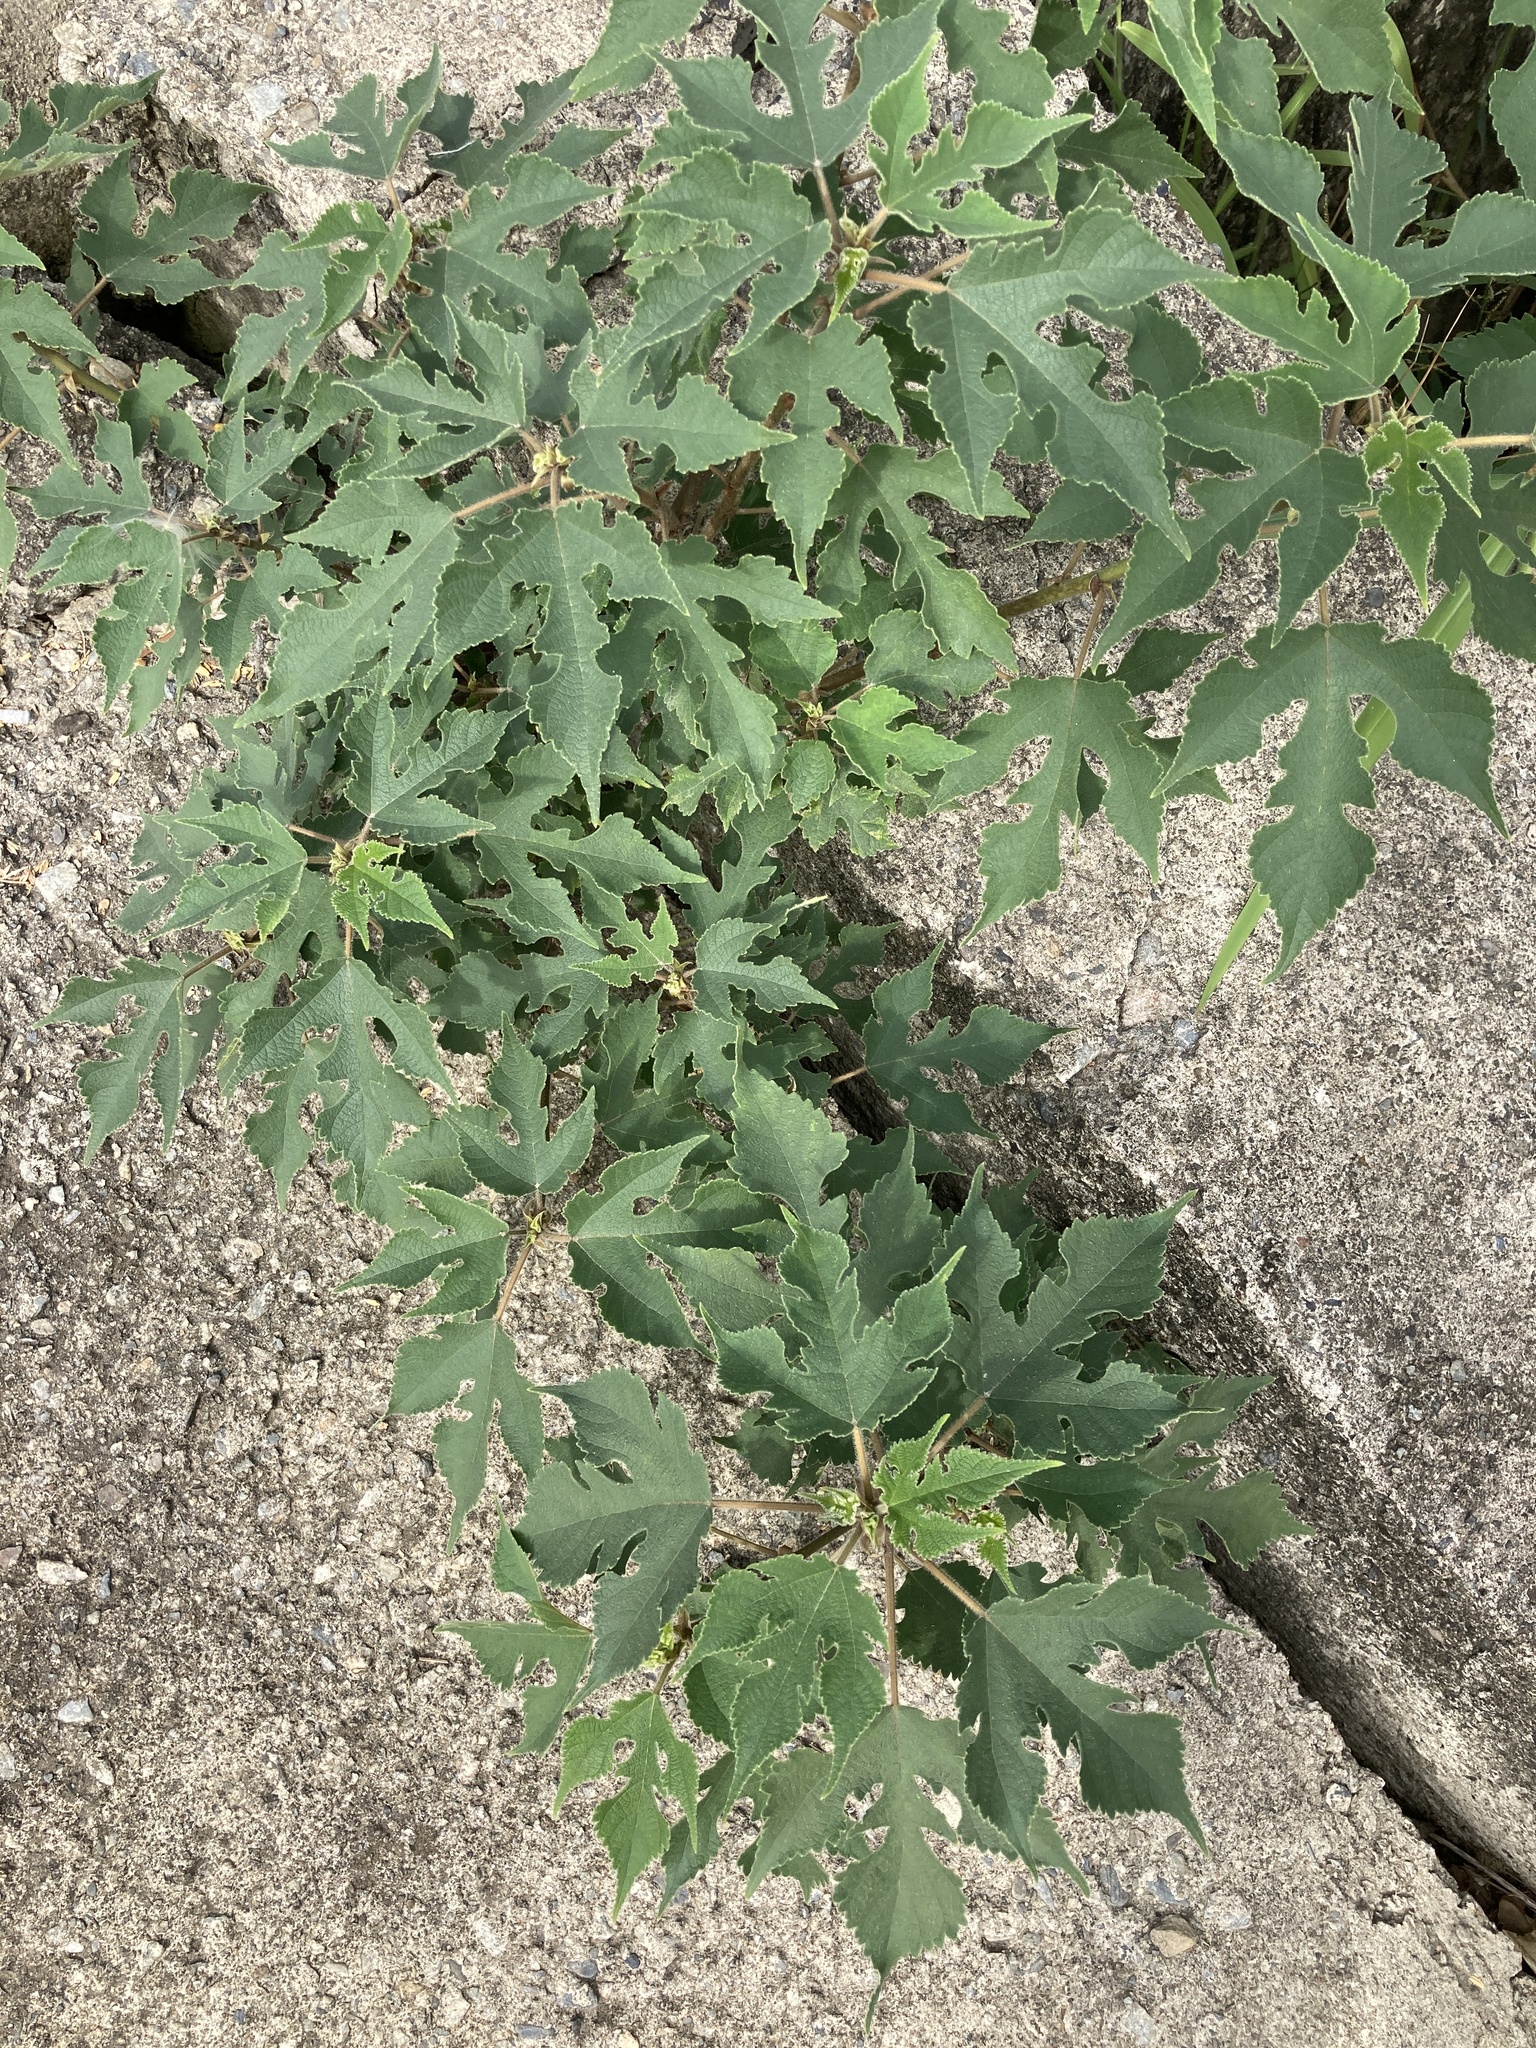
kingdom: Plantae
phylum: Tracheophyta
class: Magnoliopsida
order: Rosales
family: Moraceae
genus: Broussonetia
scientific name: Broussonetia papyrifera
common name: Paper mulberry
